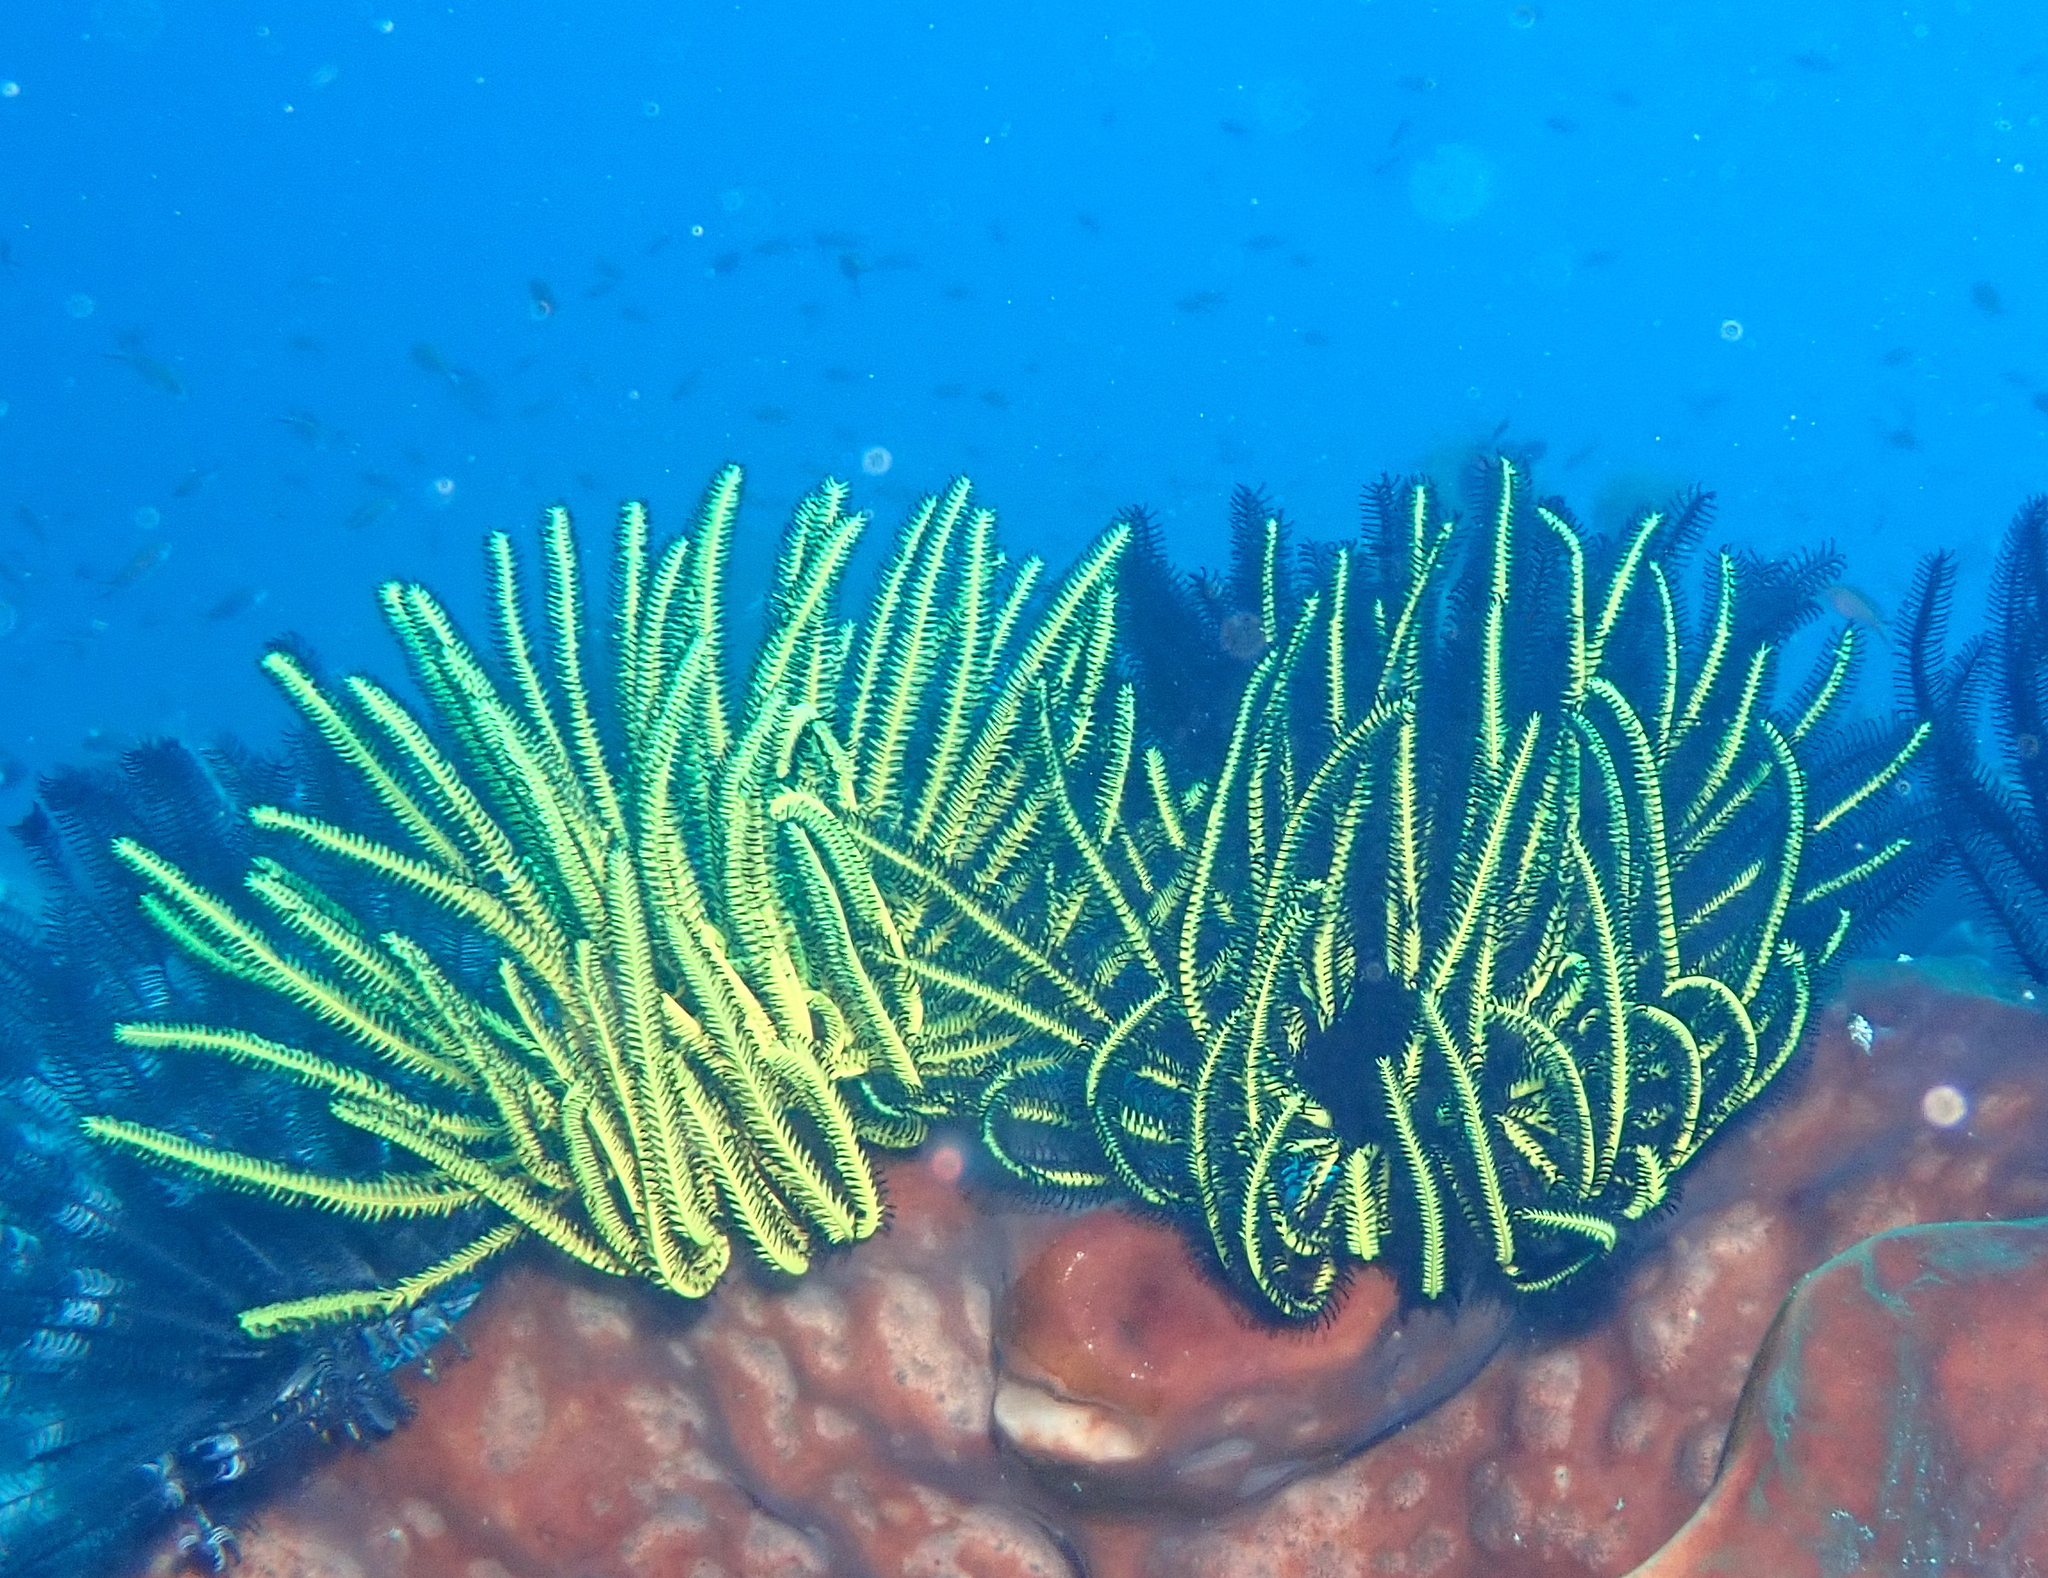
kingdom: Animalia
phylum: Echinodermata
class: Crinoidea
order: Comatulida
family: Comatulidae
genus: Anneissia
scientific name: Anneissia bennetti
